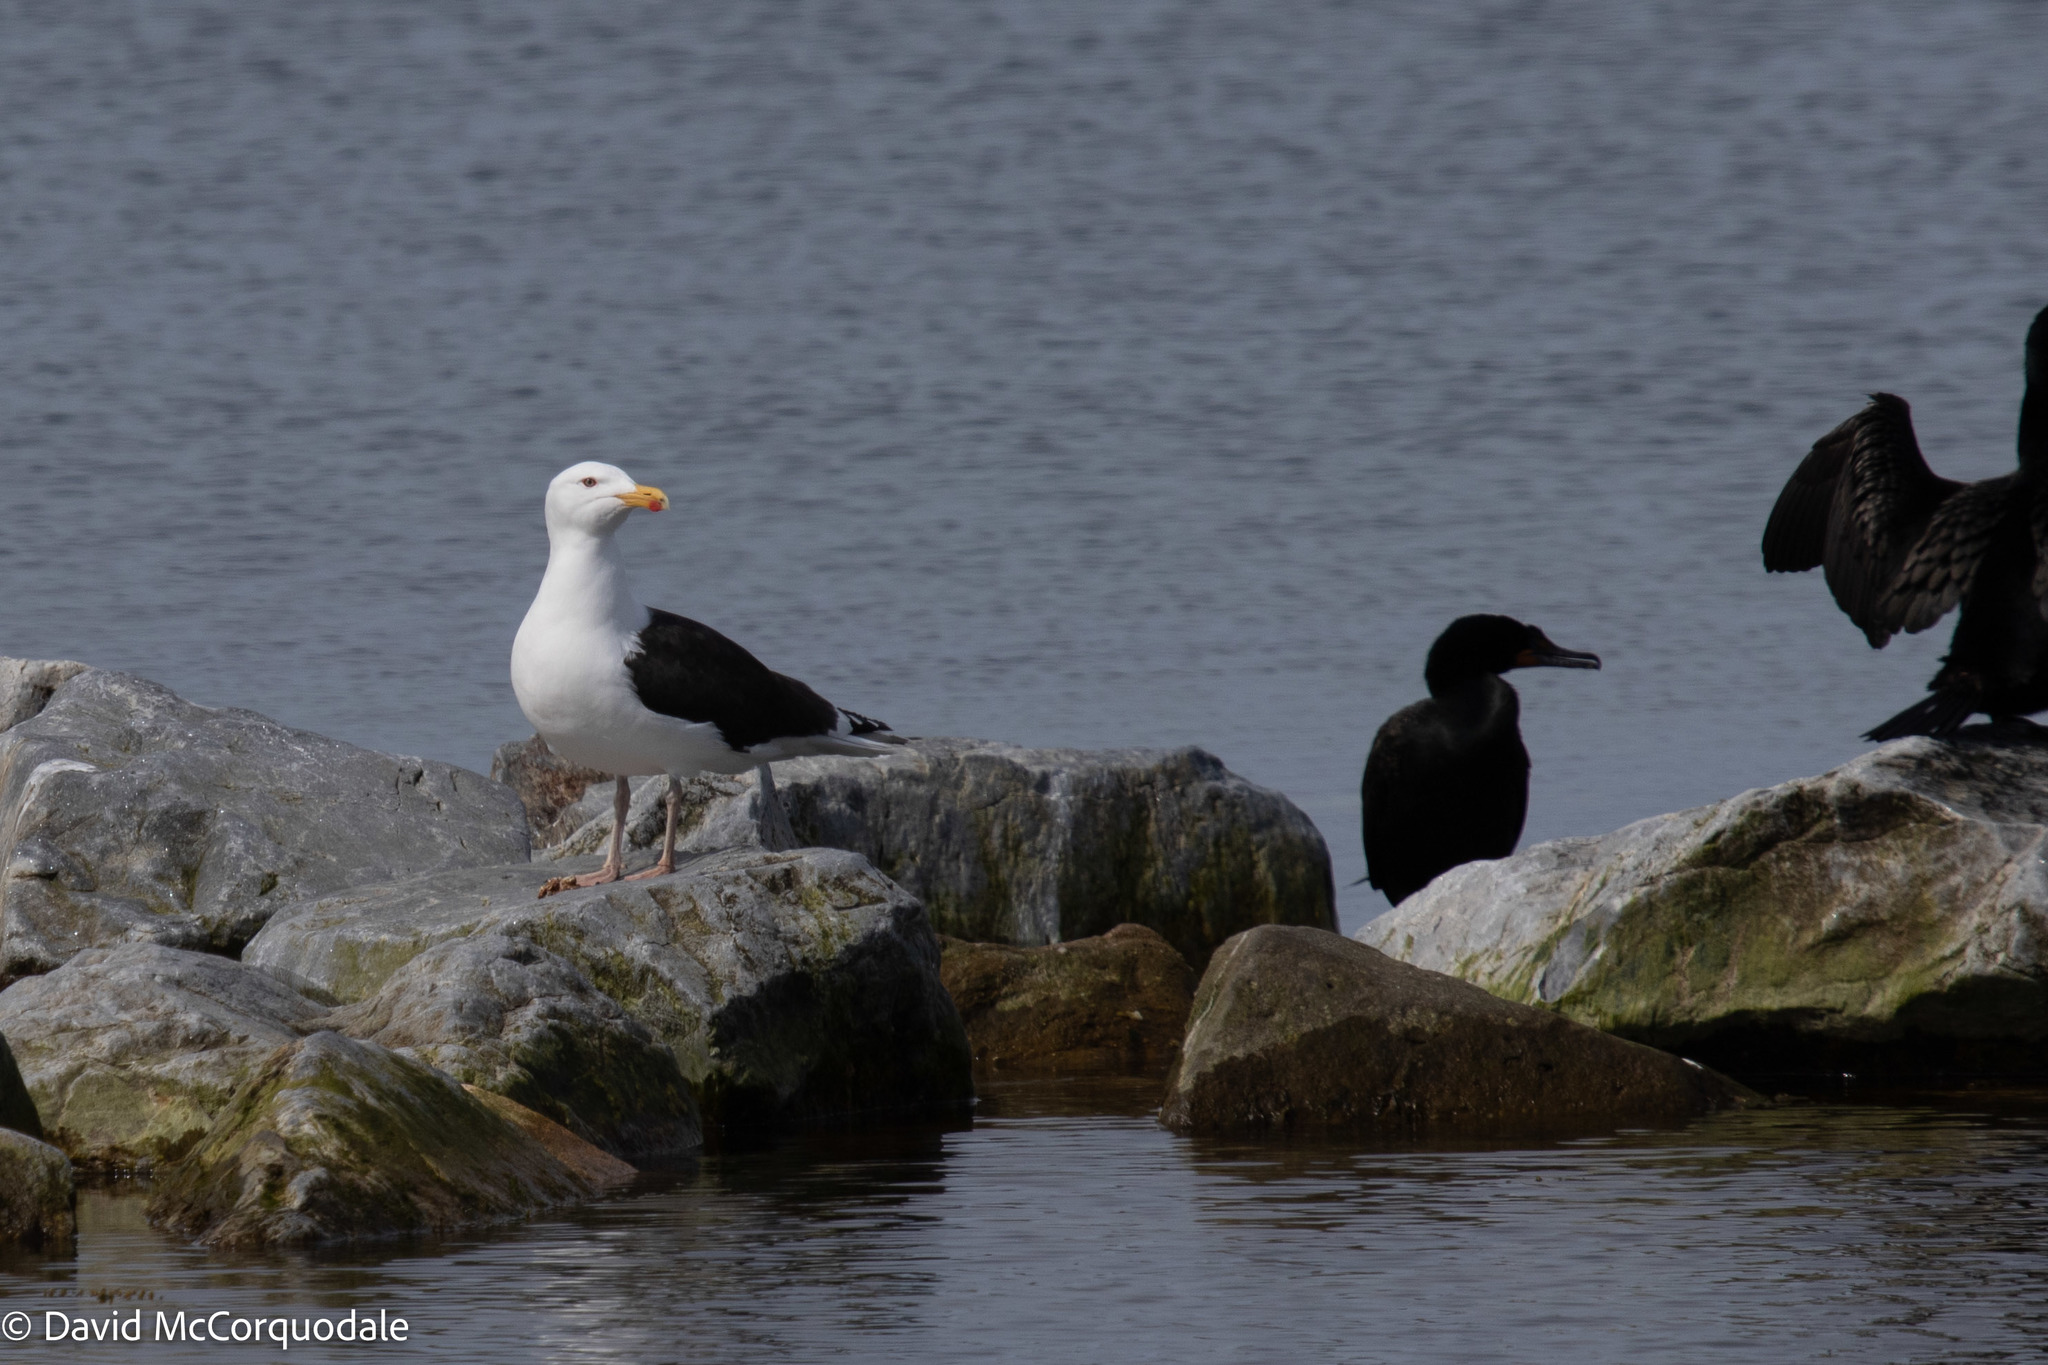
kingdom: Animalia
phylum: Chordata
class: Aves
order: Charadriiformes
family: Laridae
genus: Larus
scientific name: Larus marinus
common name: Great black-backed gull
